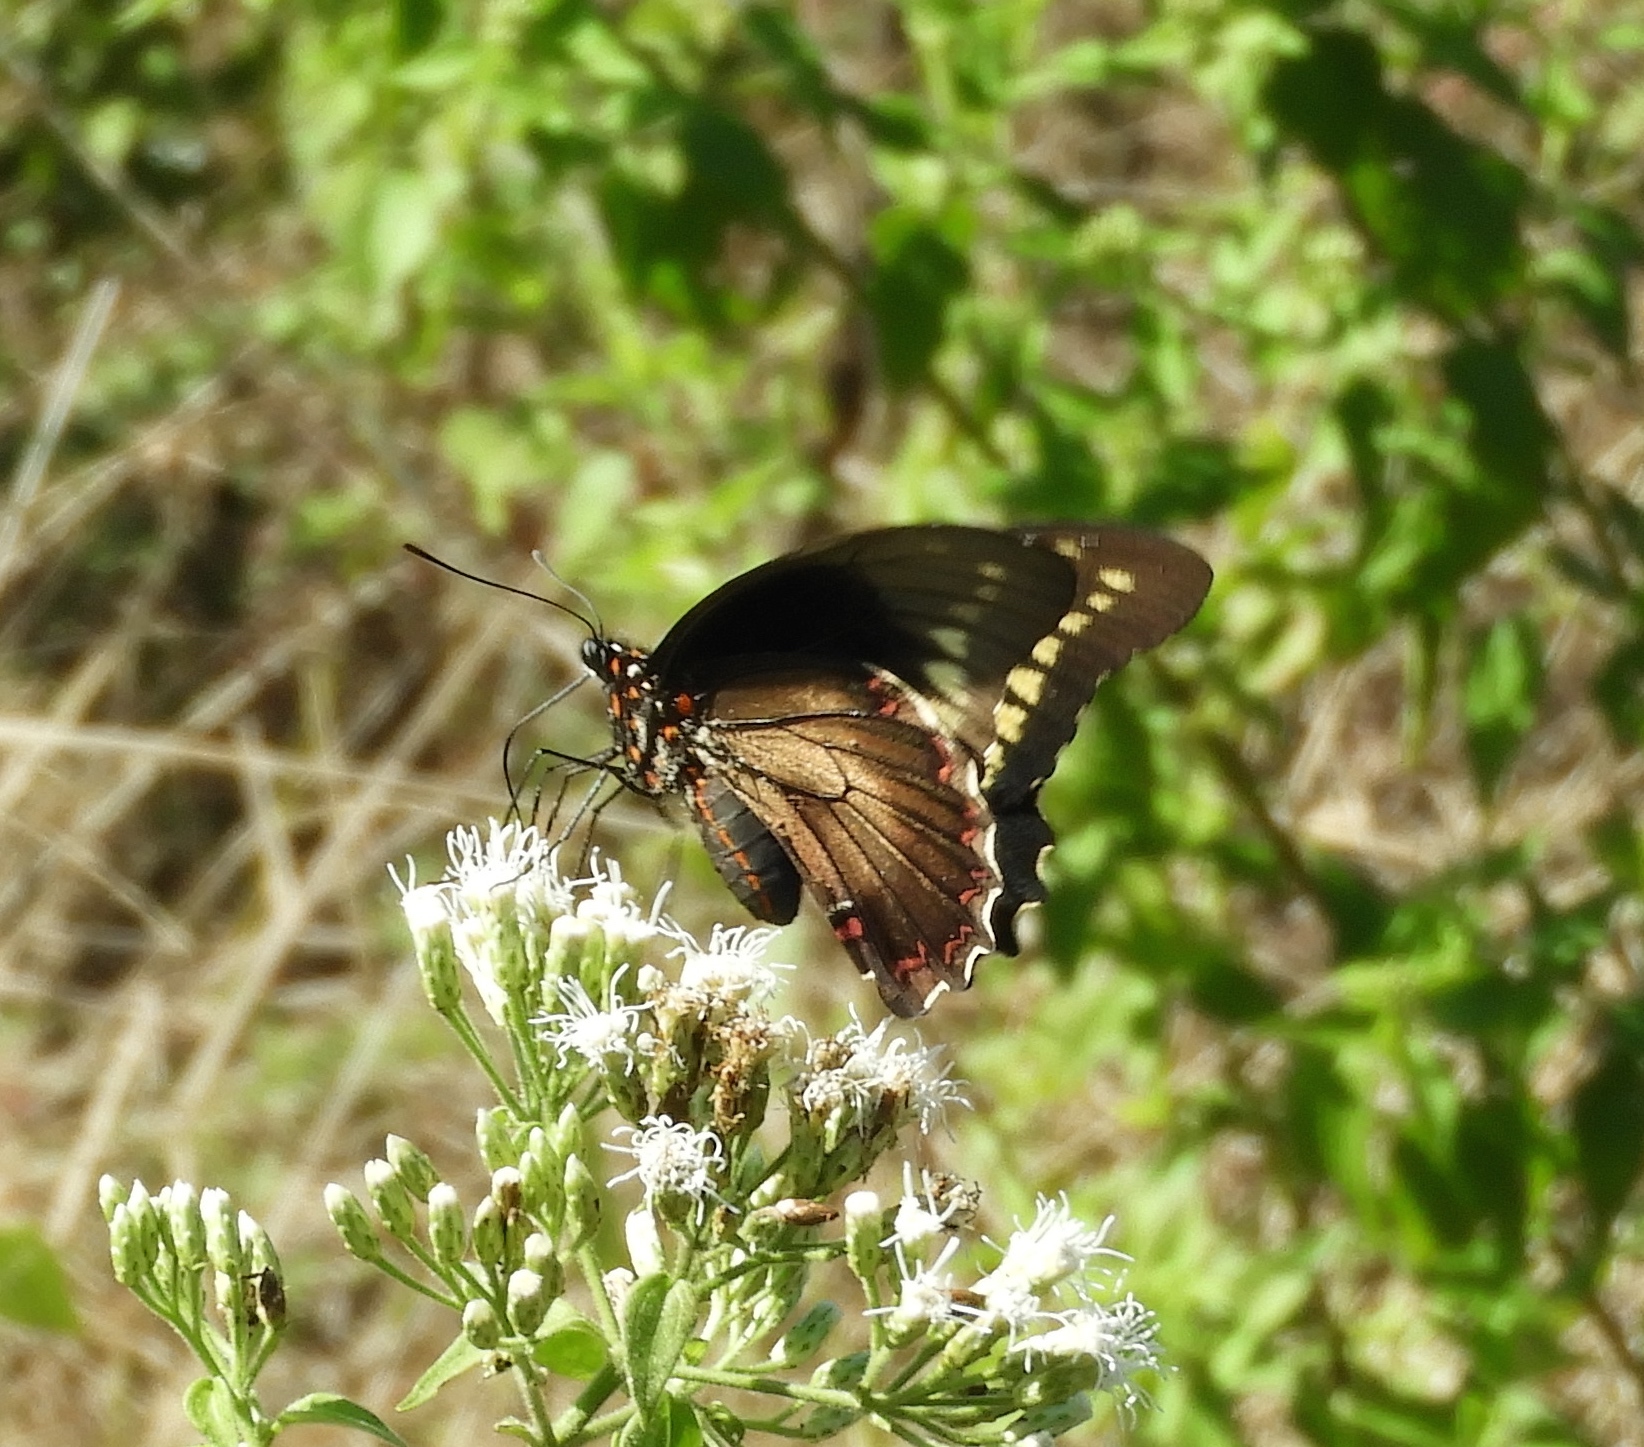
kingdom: Animalia
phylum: Arthropoda
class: Insecta
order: Lepidoptera
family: Papilionidae
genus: Battus
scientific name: Battus polydamas
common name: Polydamas swallowtail
